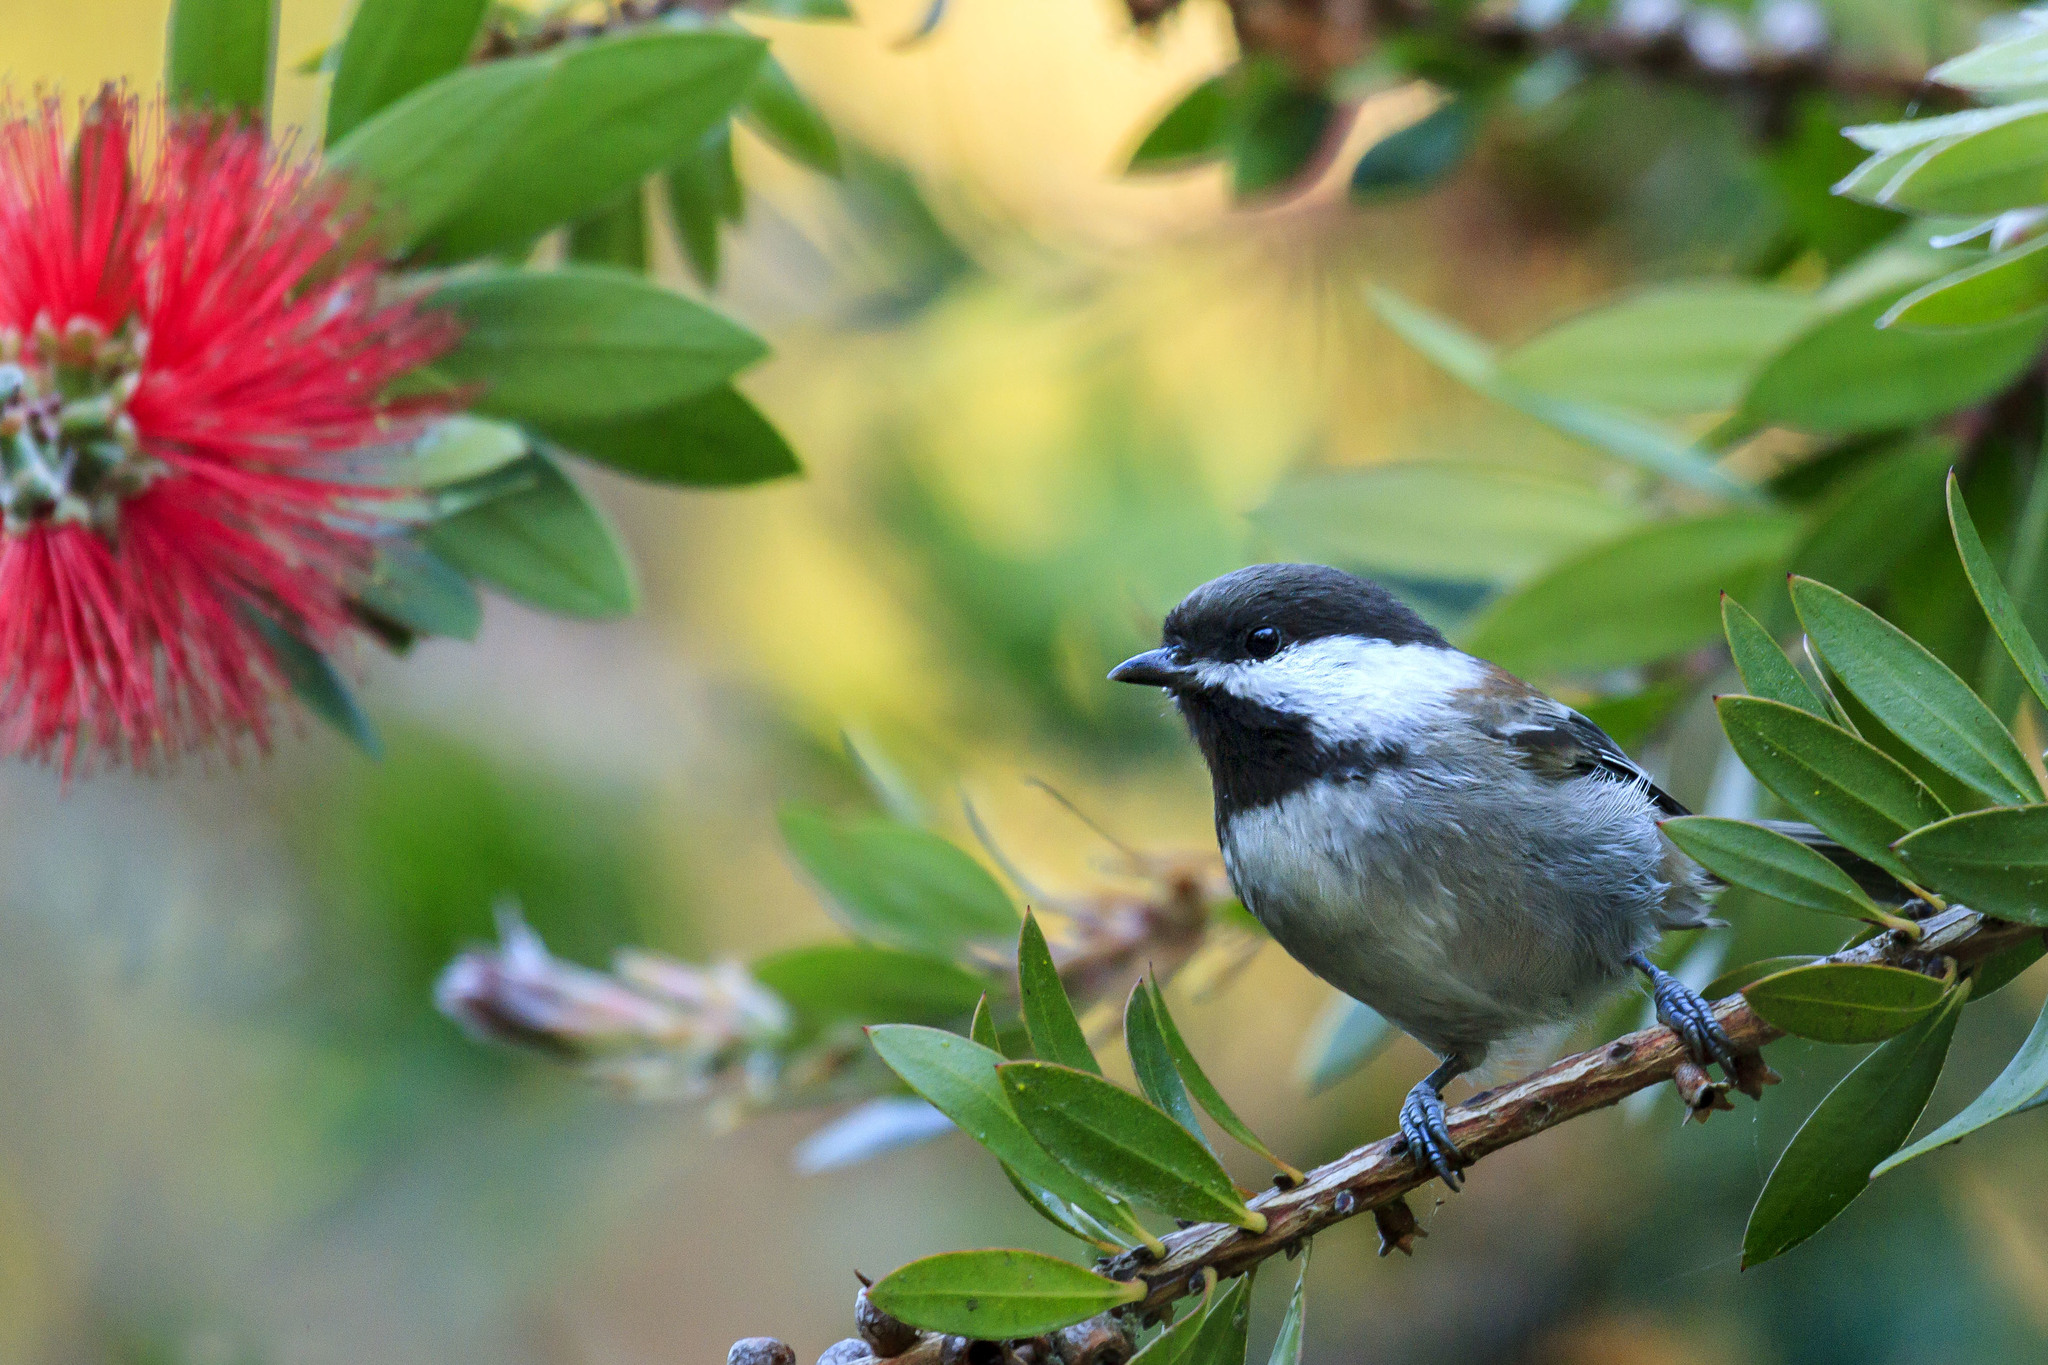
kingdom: Animalia
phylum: Chordata
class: Aves
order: Passeriformes
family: Paridae
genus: Poecile
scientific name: Poecile rufescens
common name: Chestnut-backed chickadee
